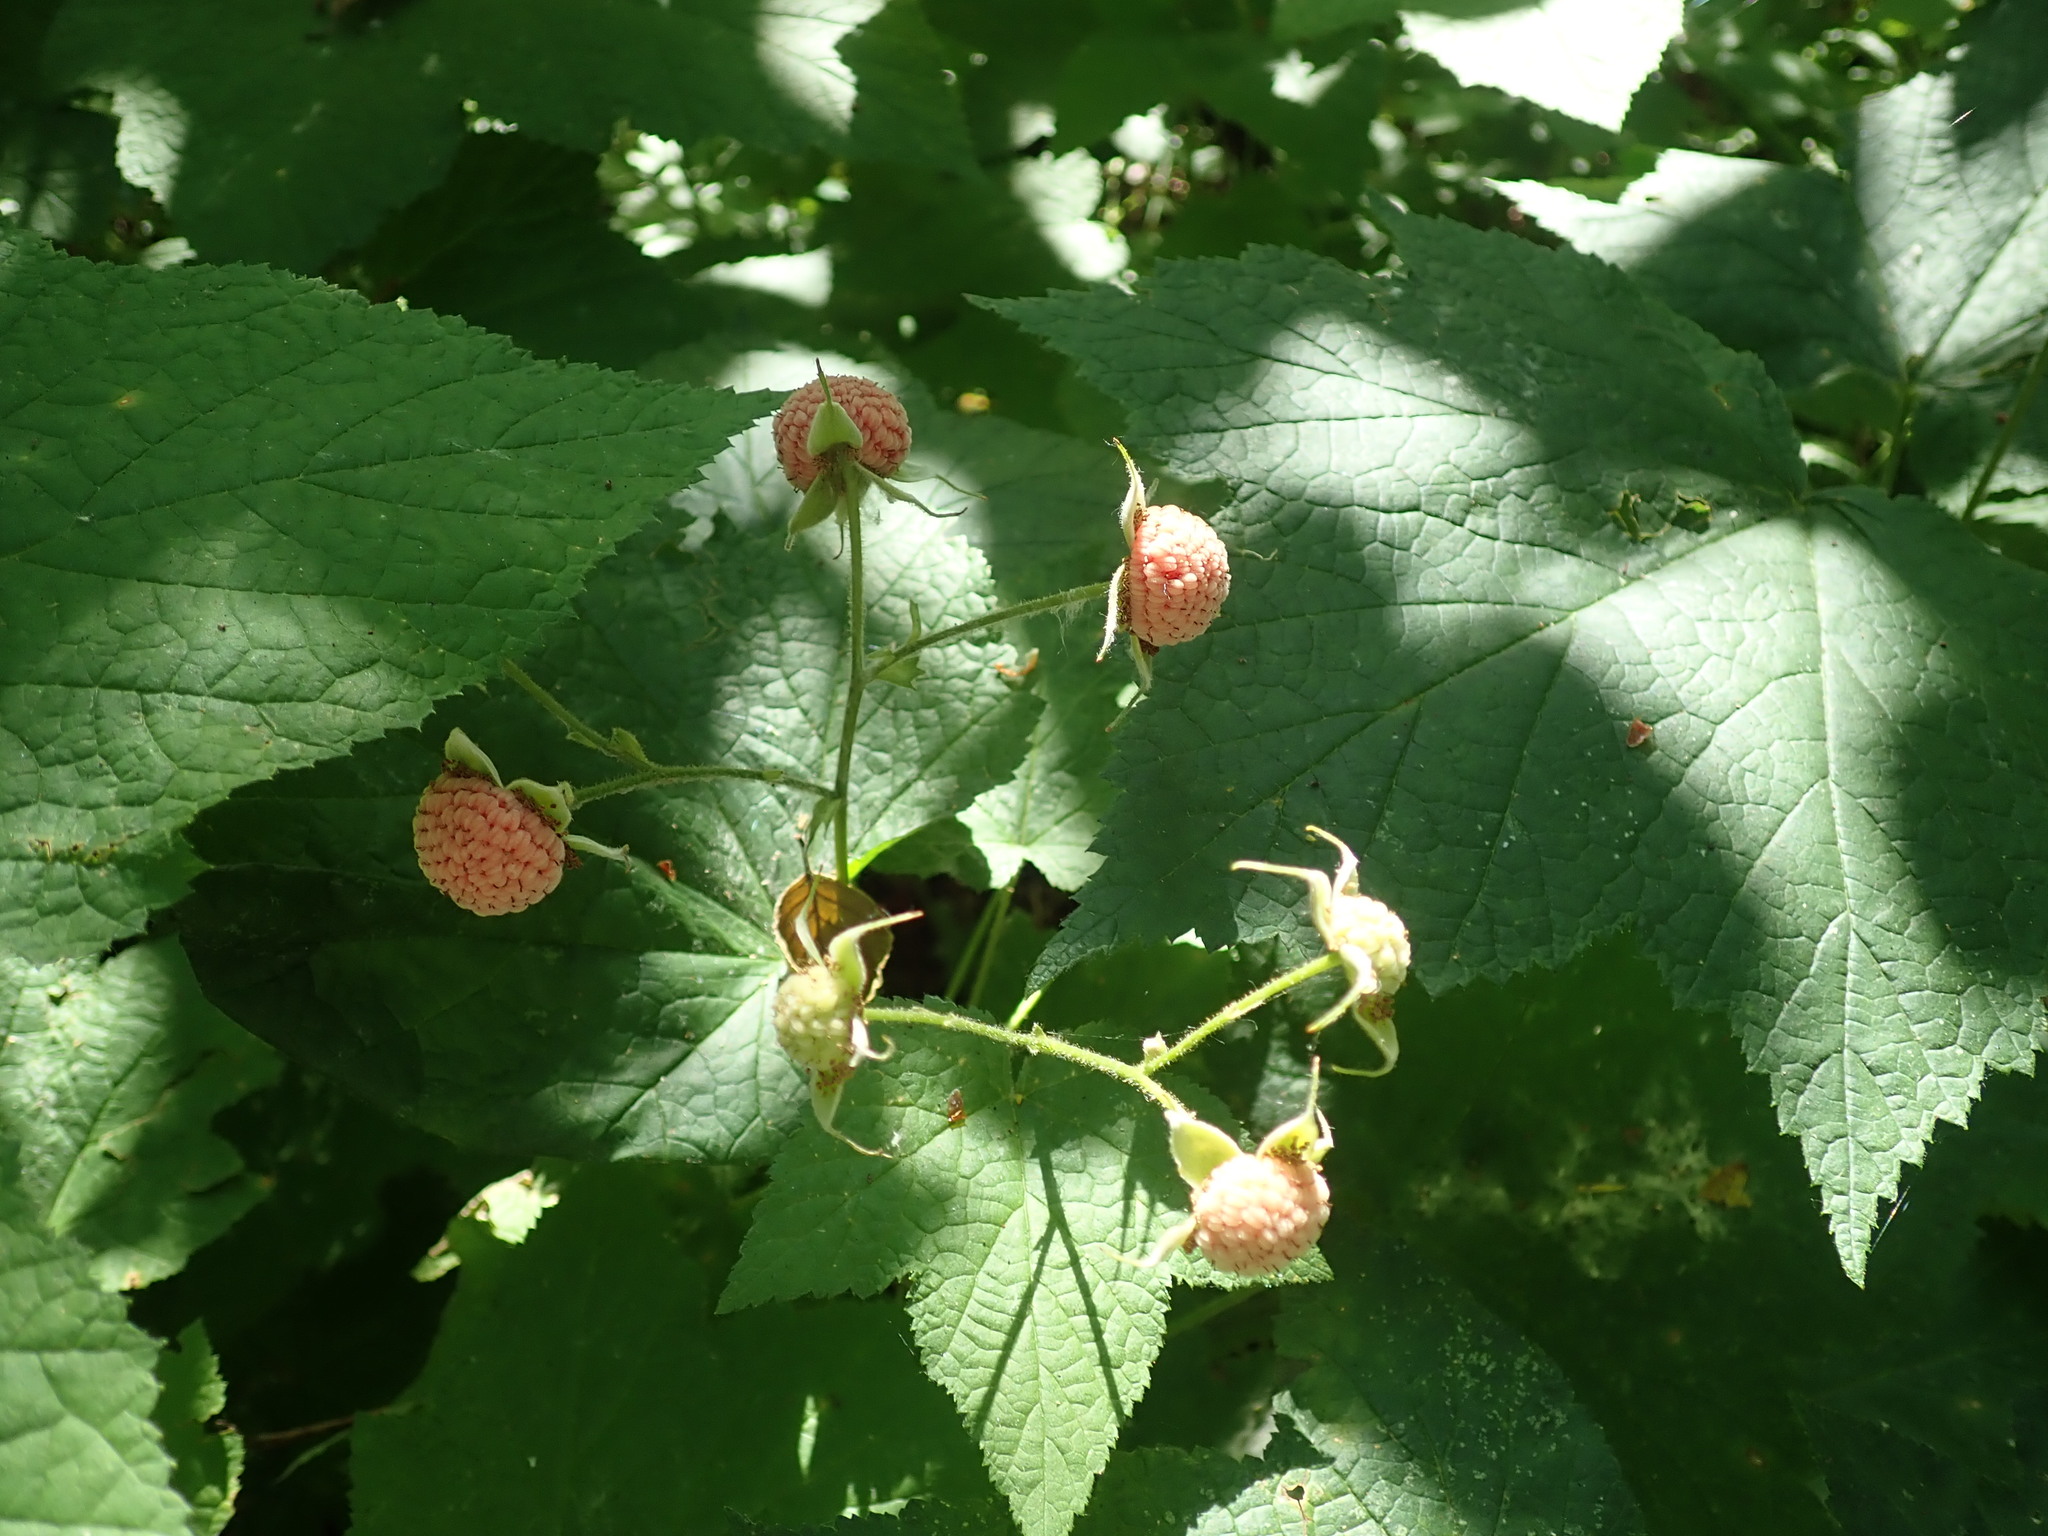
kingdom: Plantae
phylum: Tracheophyta
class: Magnoliopsida
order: Rosales
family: Rosaceae
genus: Rubus
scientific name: Rubus parviflorus
